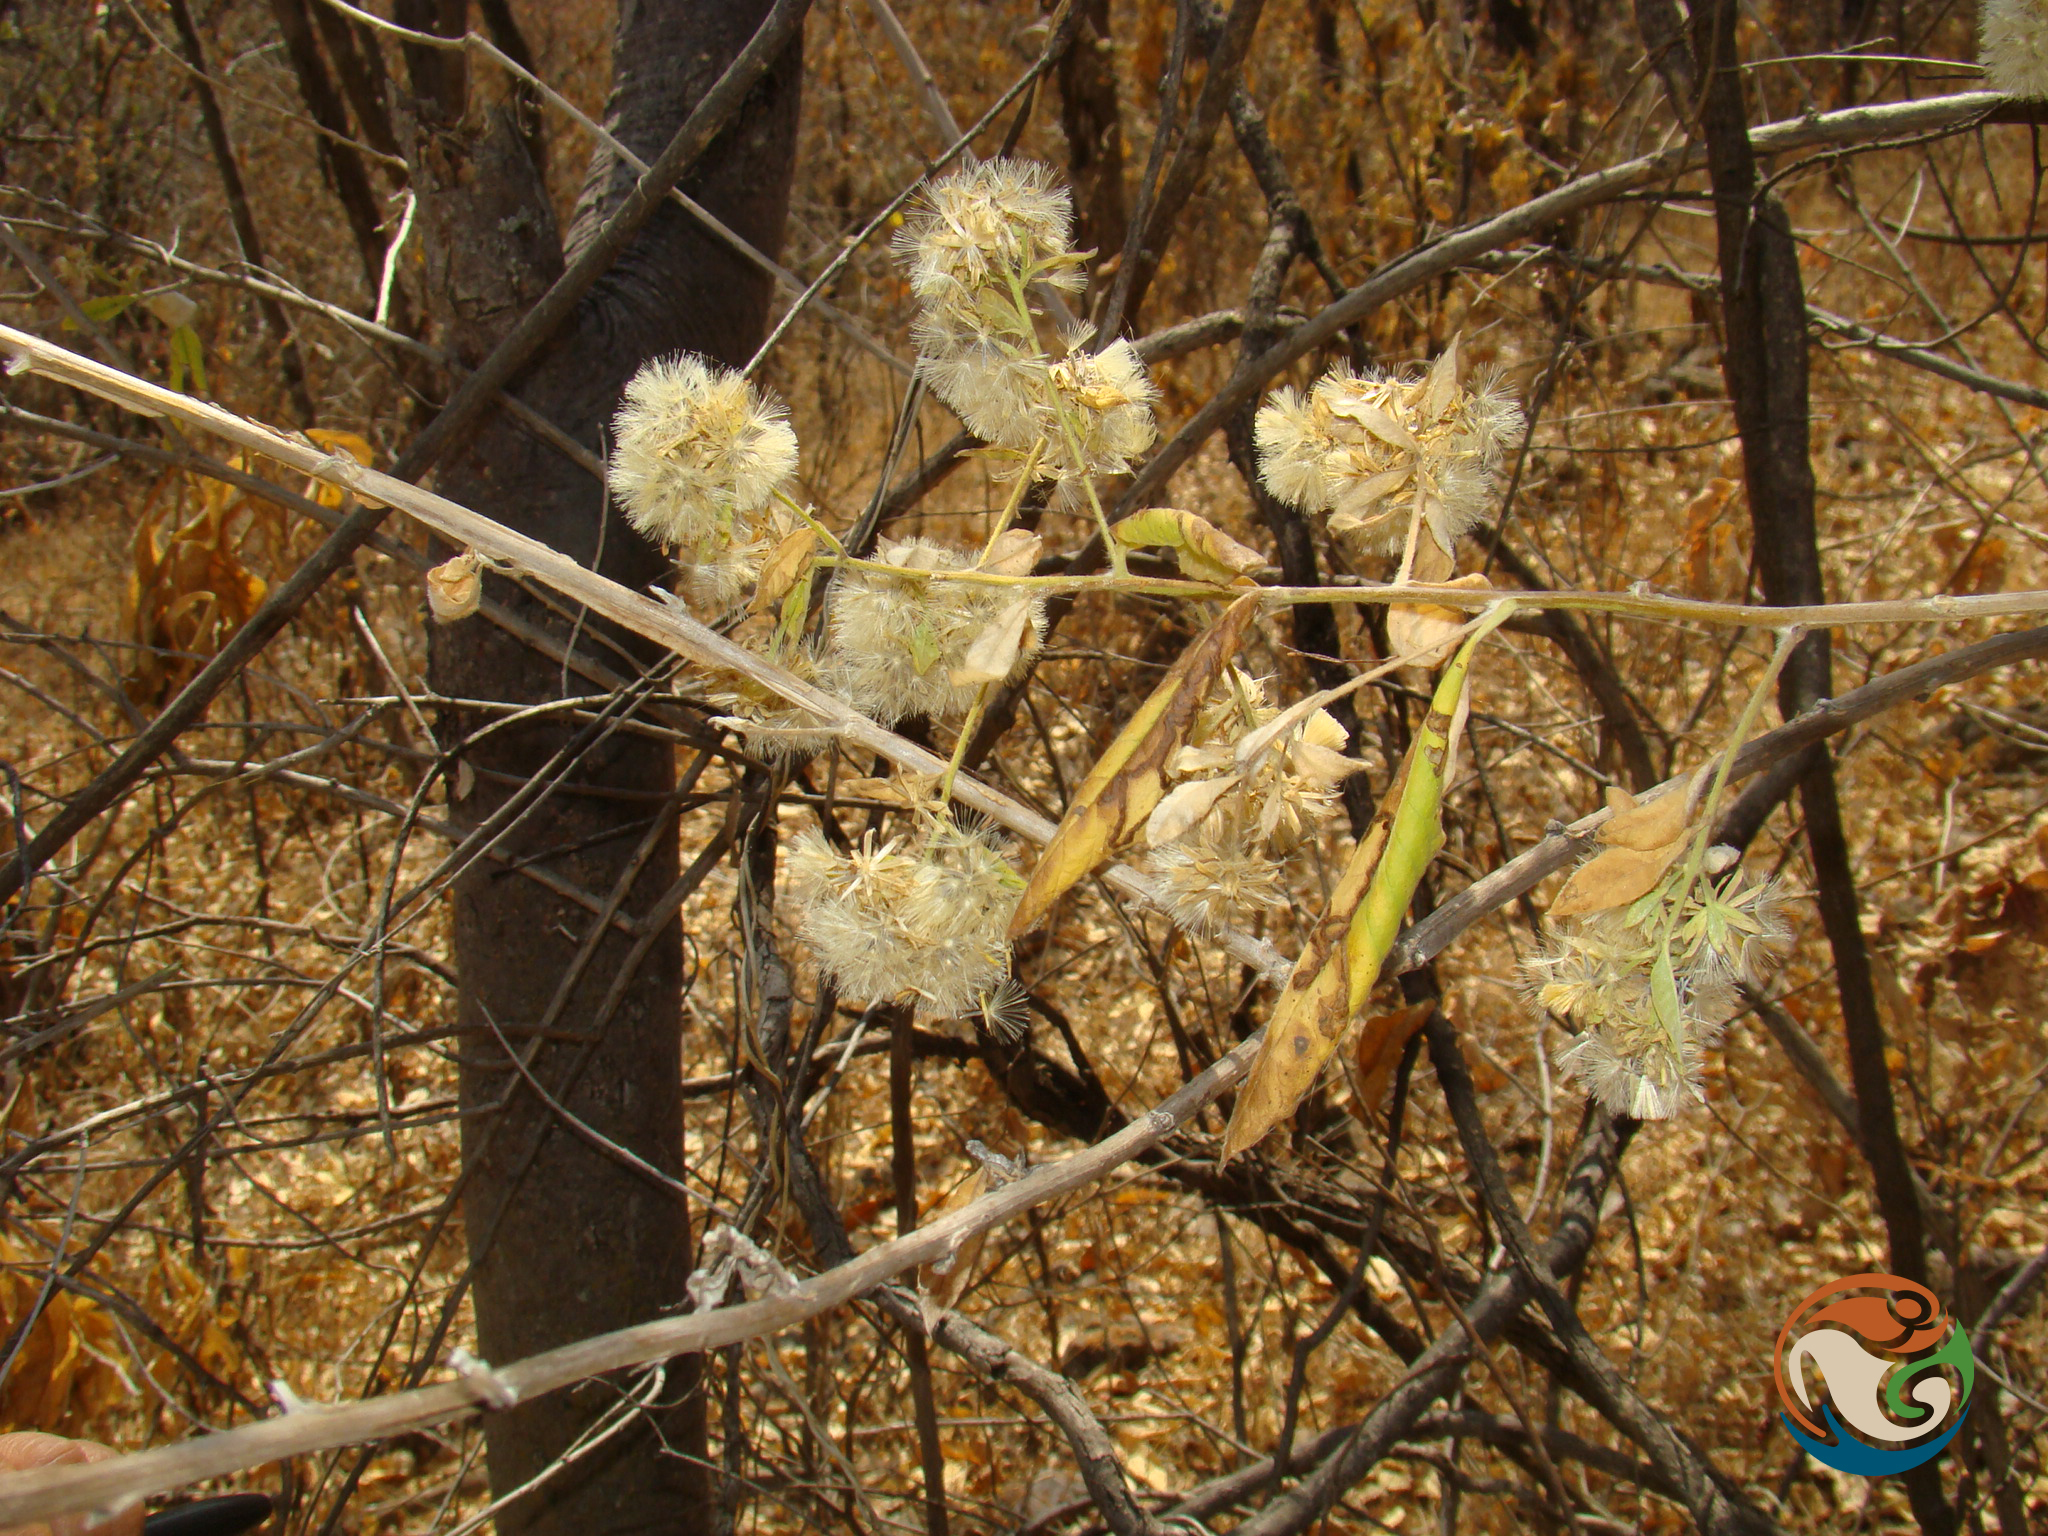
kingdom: Plantae
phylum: Tracheophyta
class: Magnoliopsida
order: Asterales
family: Asteraceae
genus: Trixis
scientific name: Trixis mexicana
